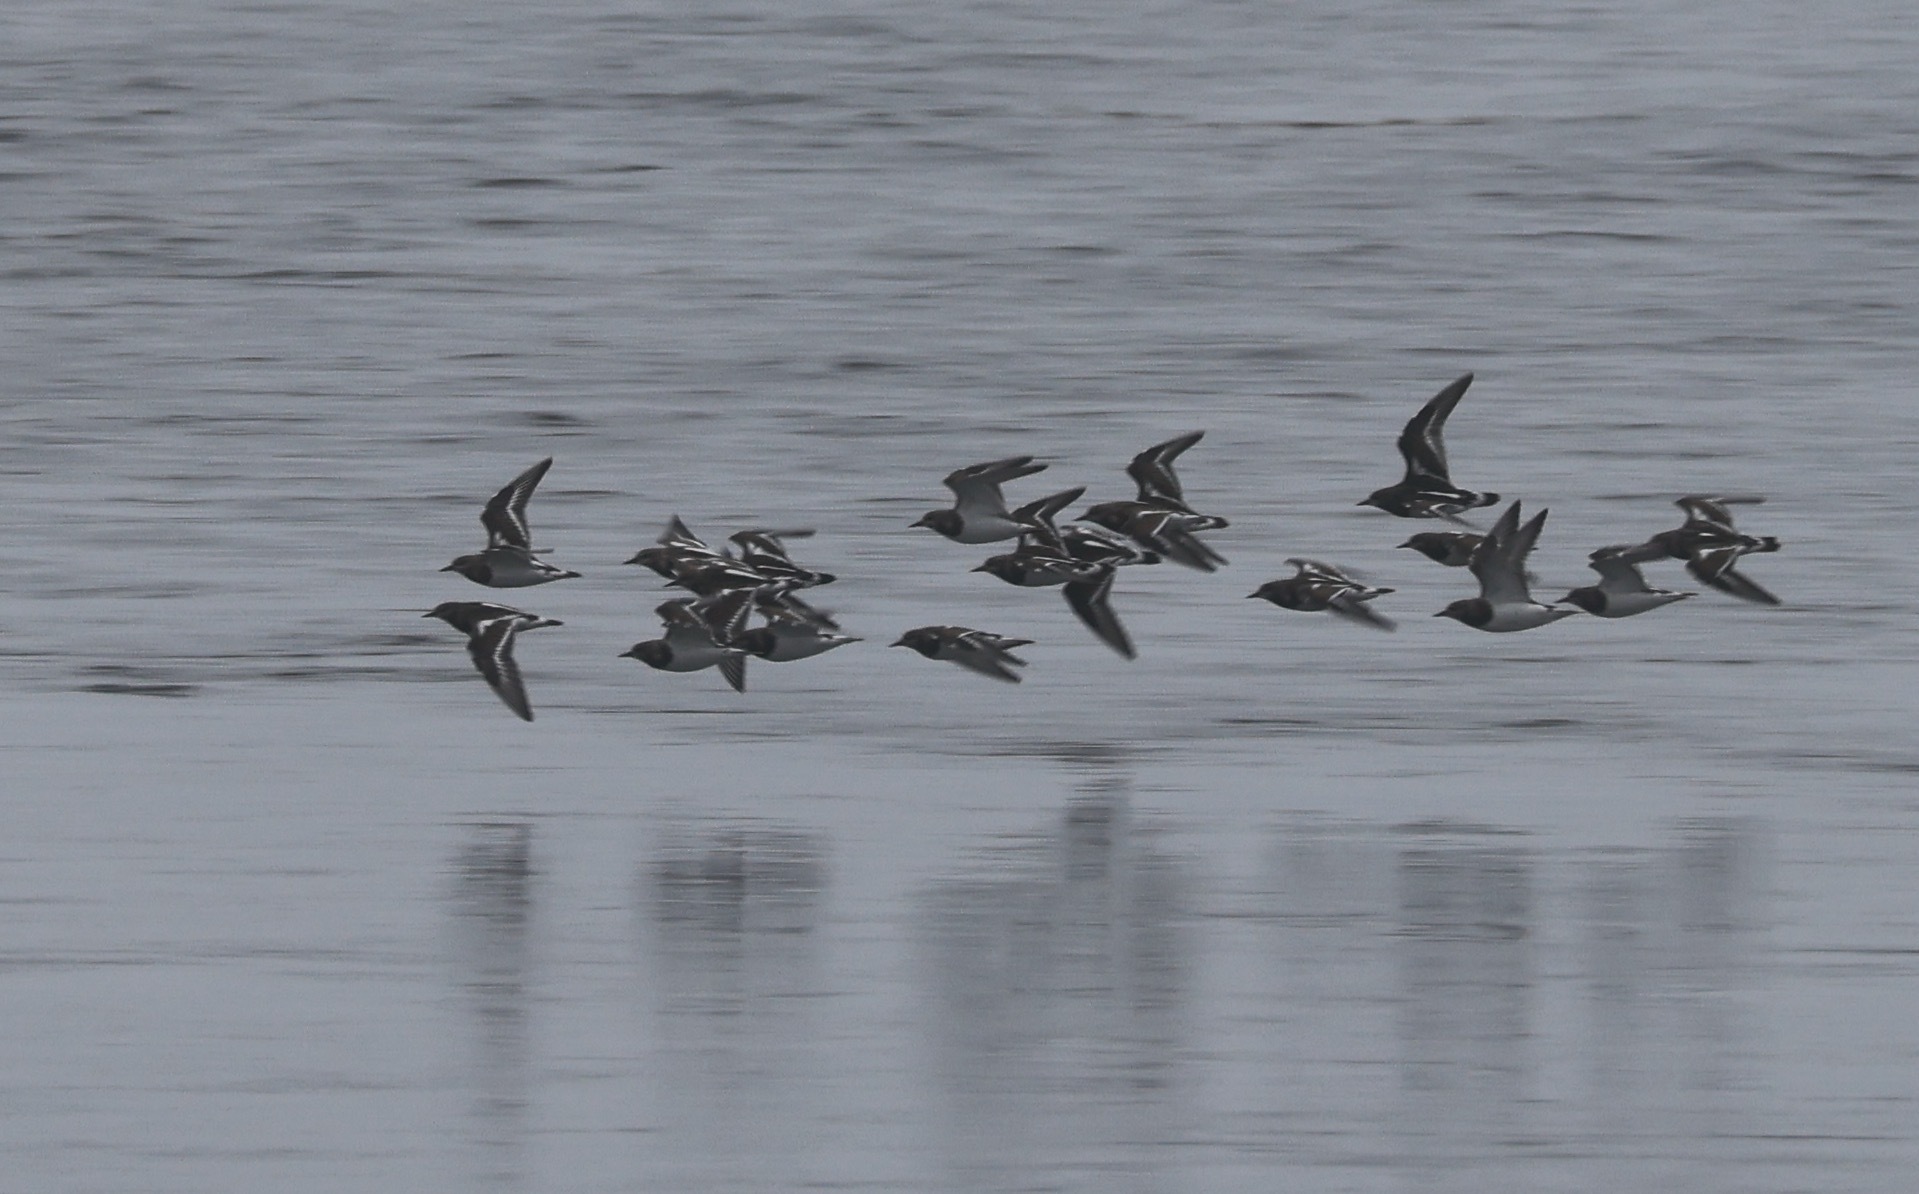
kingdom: Animalia
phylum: Chordata
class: Aves
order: Charadriiformes
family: Scolopacidae
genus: Arenaria
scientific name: Arenaria interpres
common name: Ruddy turnstone
